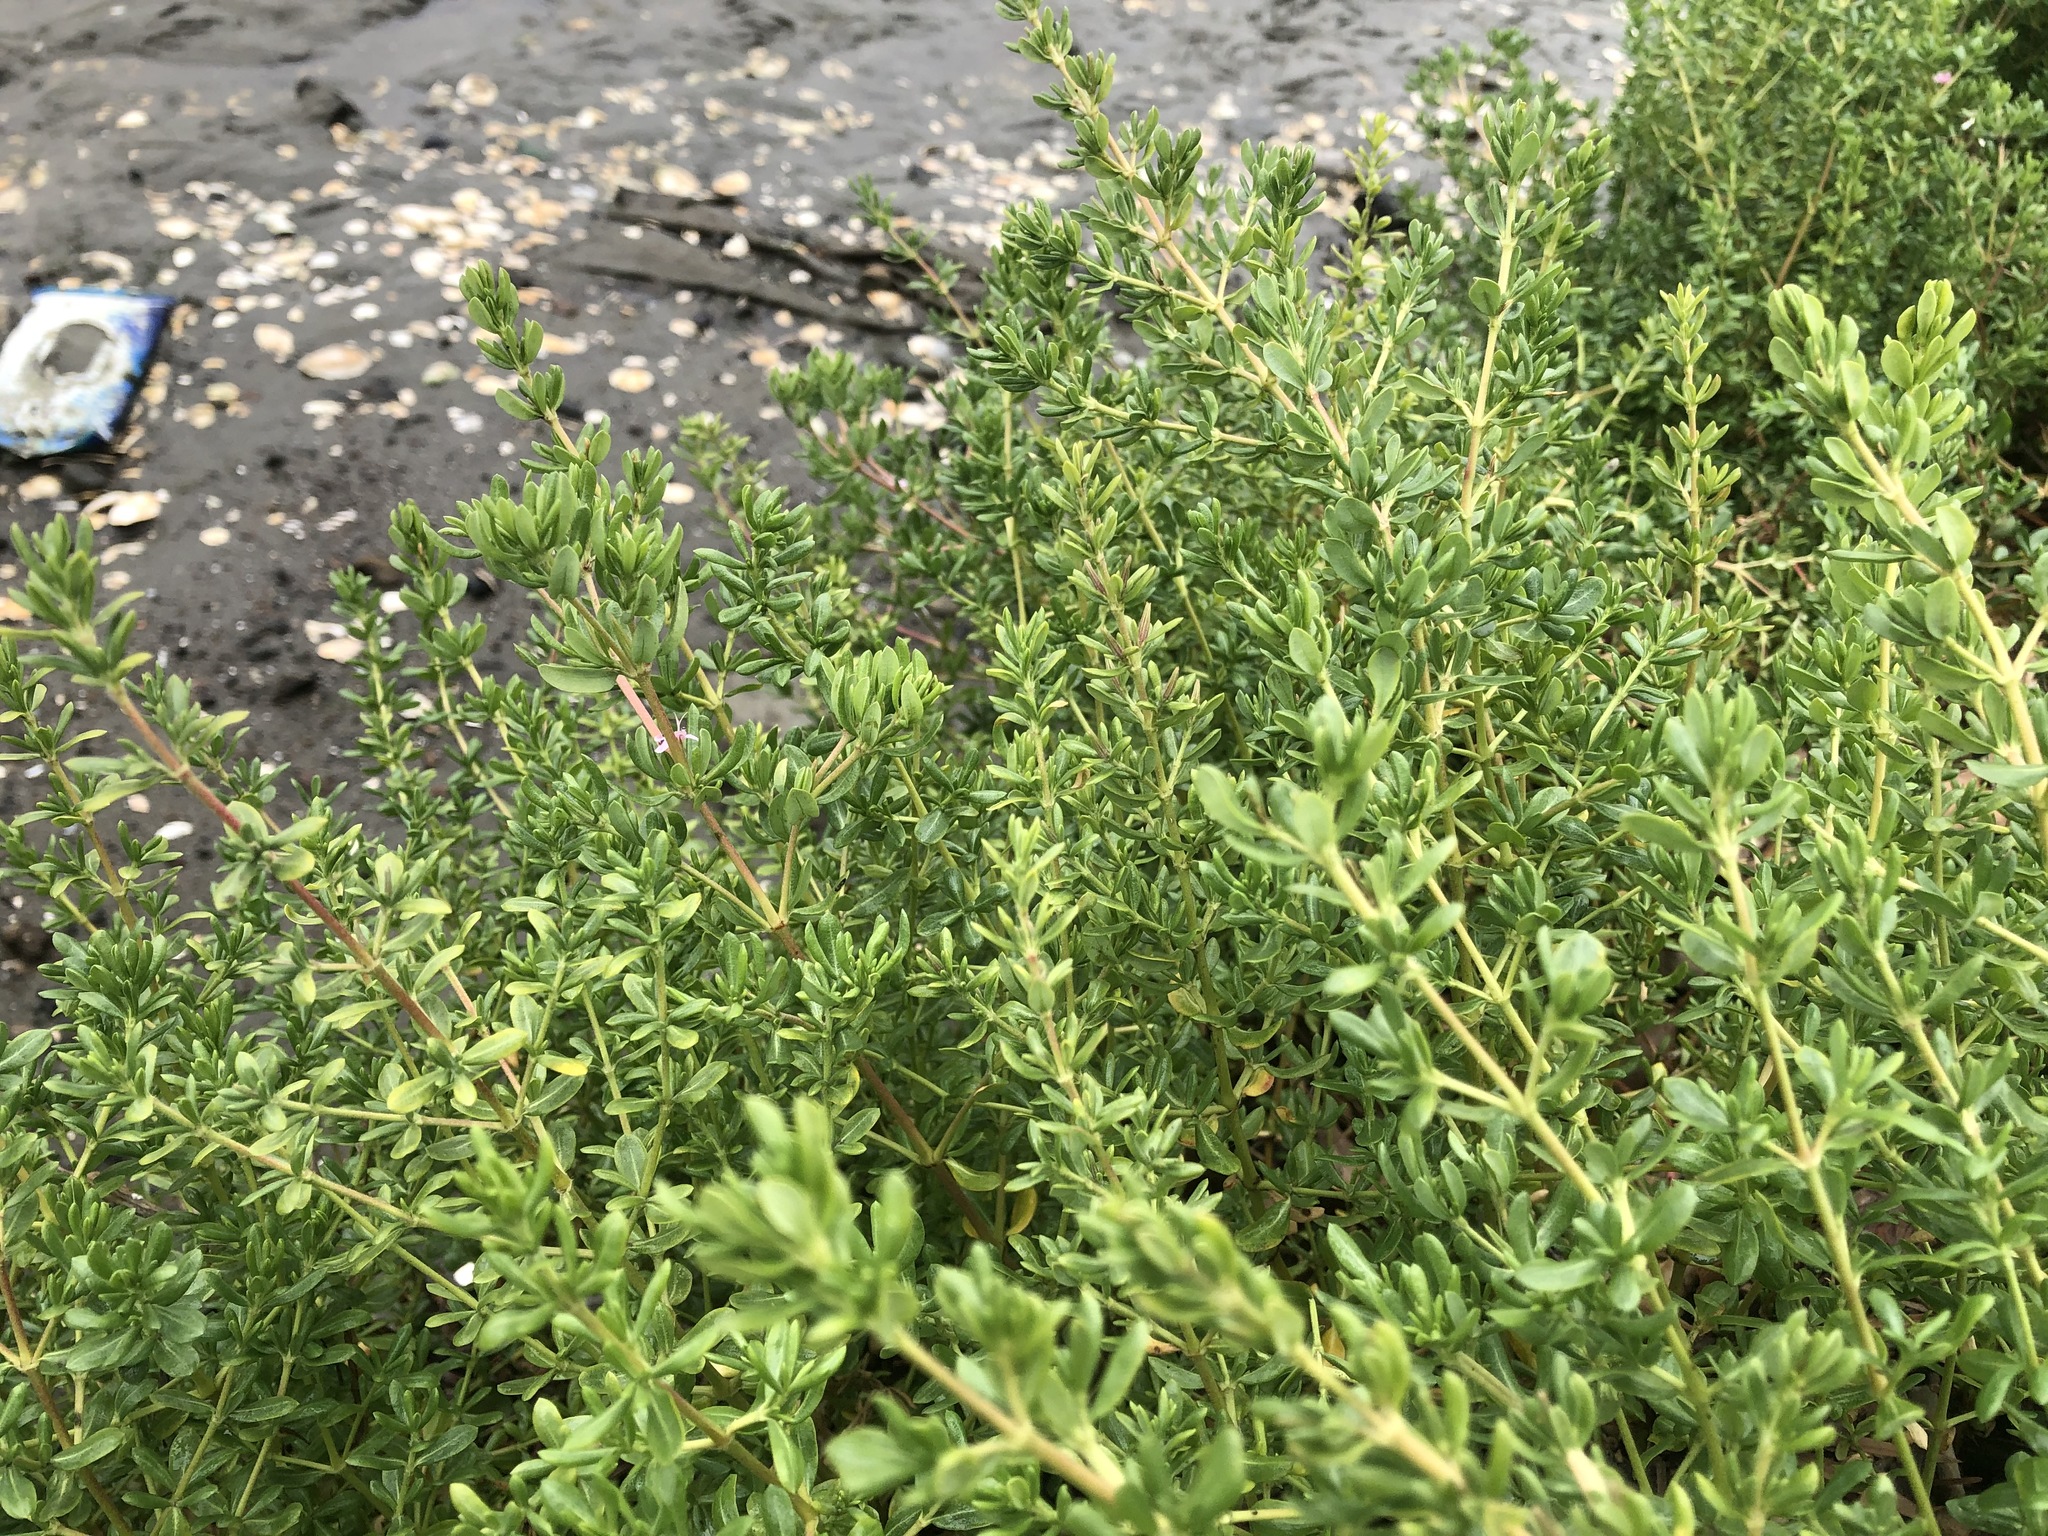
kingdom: Plantae
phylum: Tracheophyta
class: Magnoliopsida
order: Caryophyllales
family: Frankeniaceae
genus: Frankenia
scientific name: Frankenia salina
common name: Alkali seaheath
